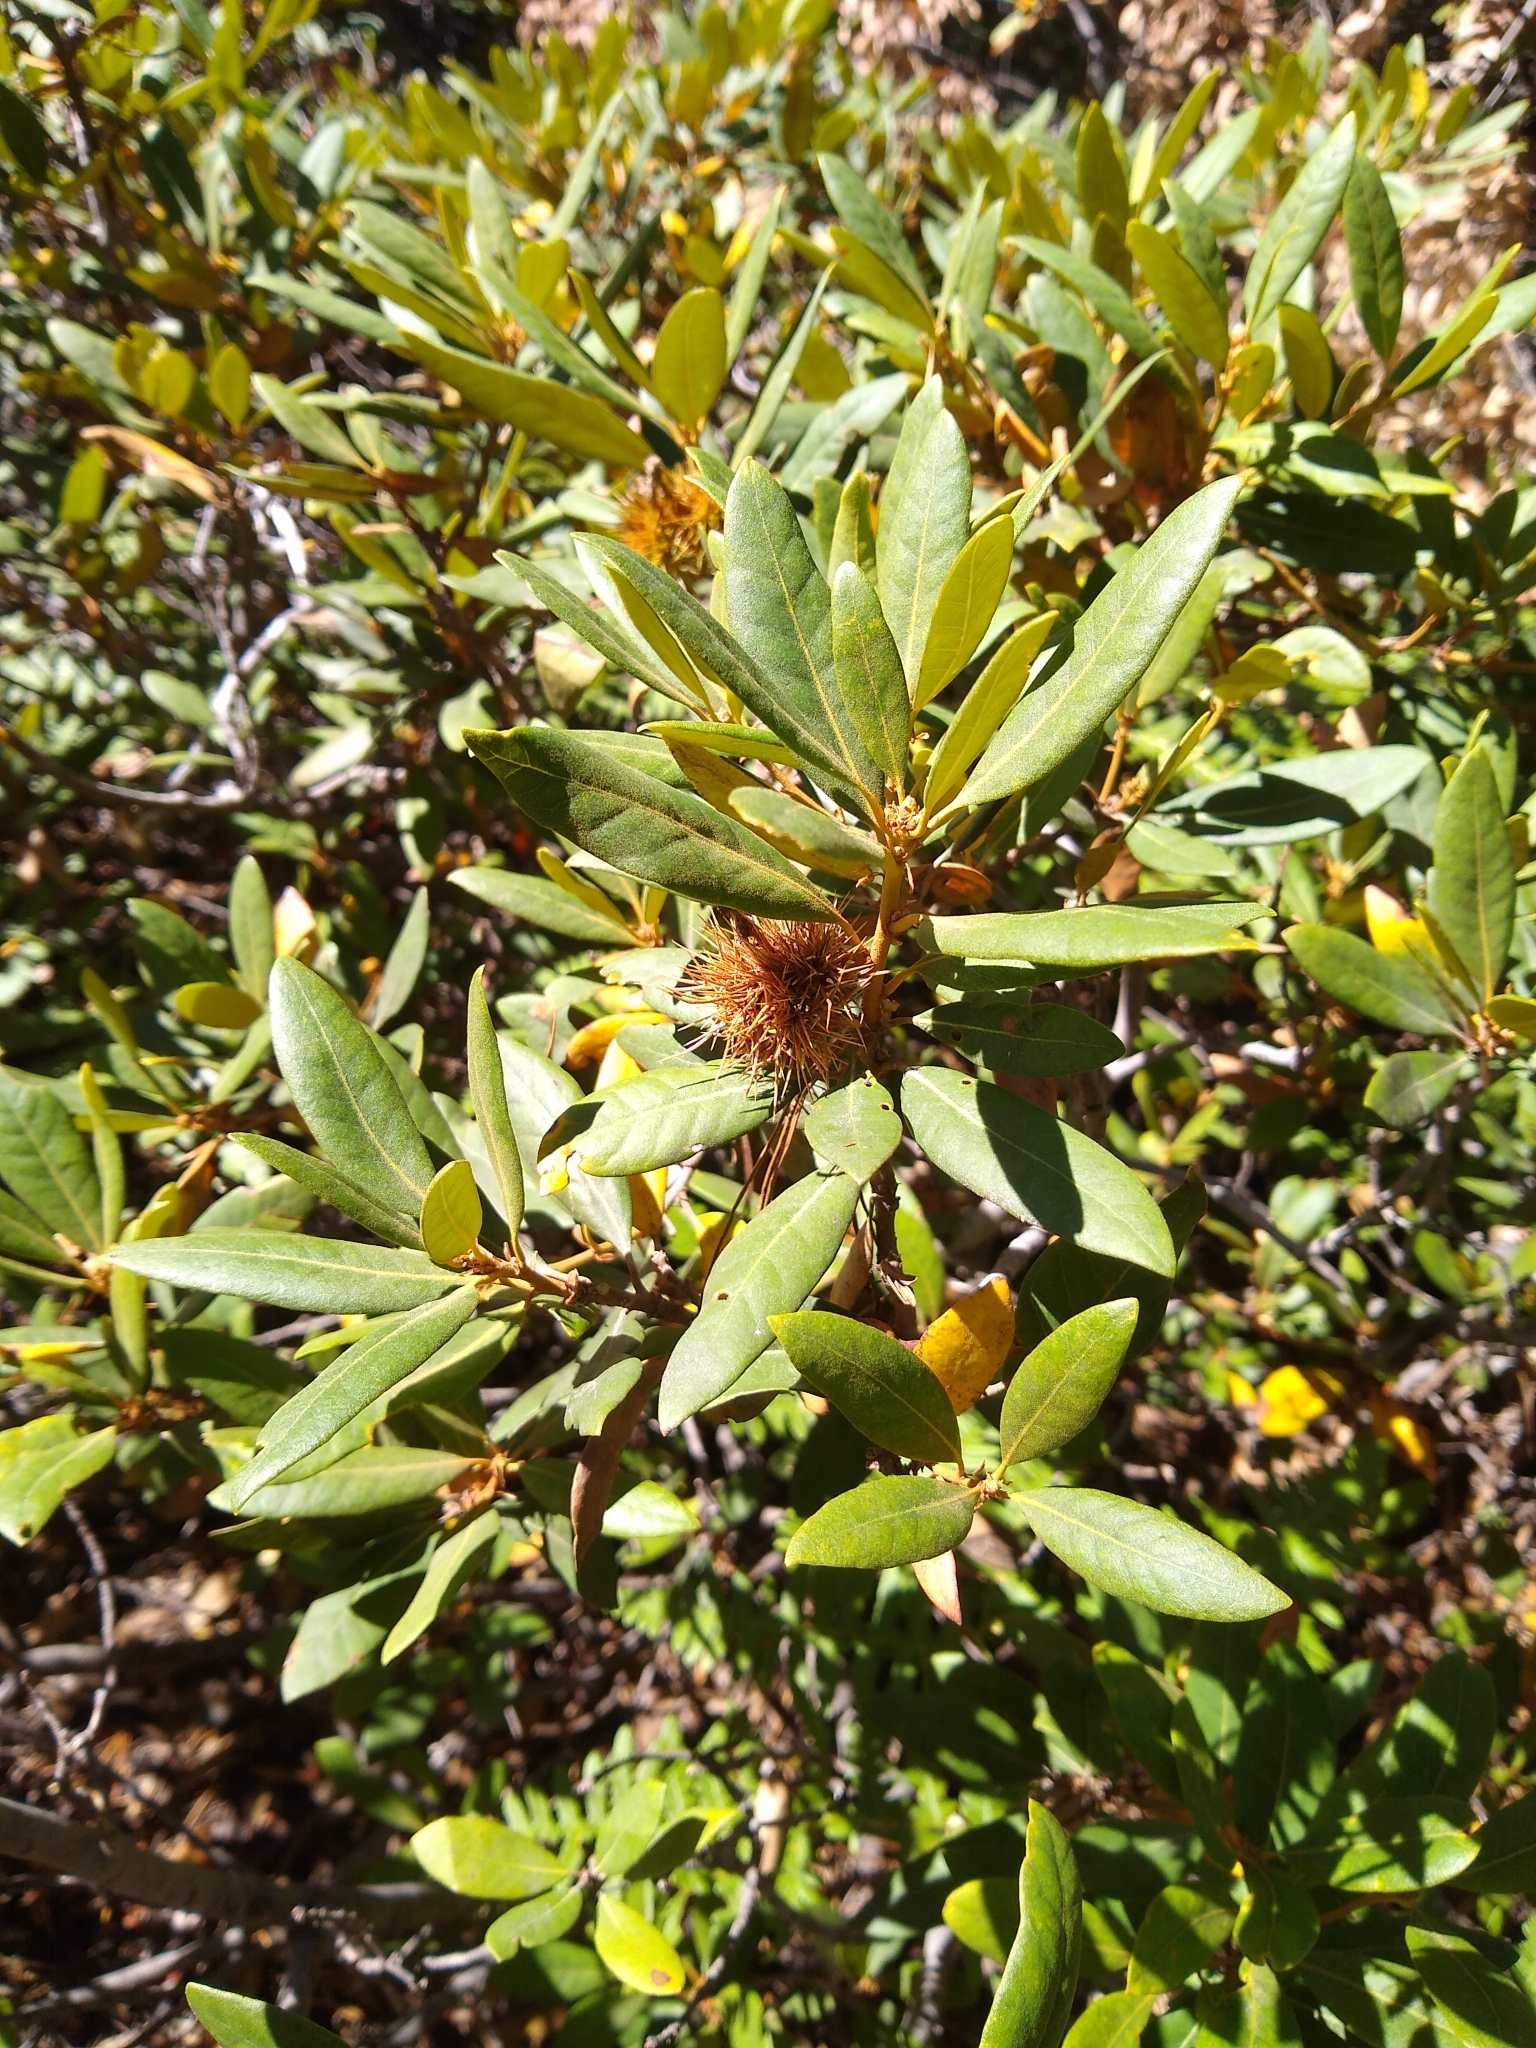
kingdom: Plantae
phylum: Tracheophyta
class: Magnoliopsida
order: Fagales
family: Fagaceae
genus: Chrysolepis
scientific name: Chrysolepis sempervirens
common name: Bush chinquapin
